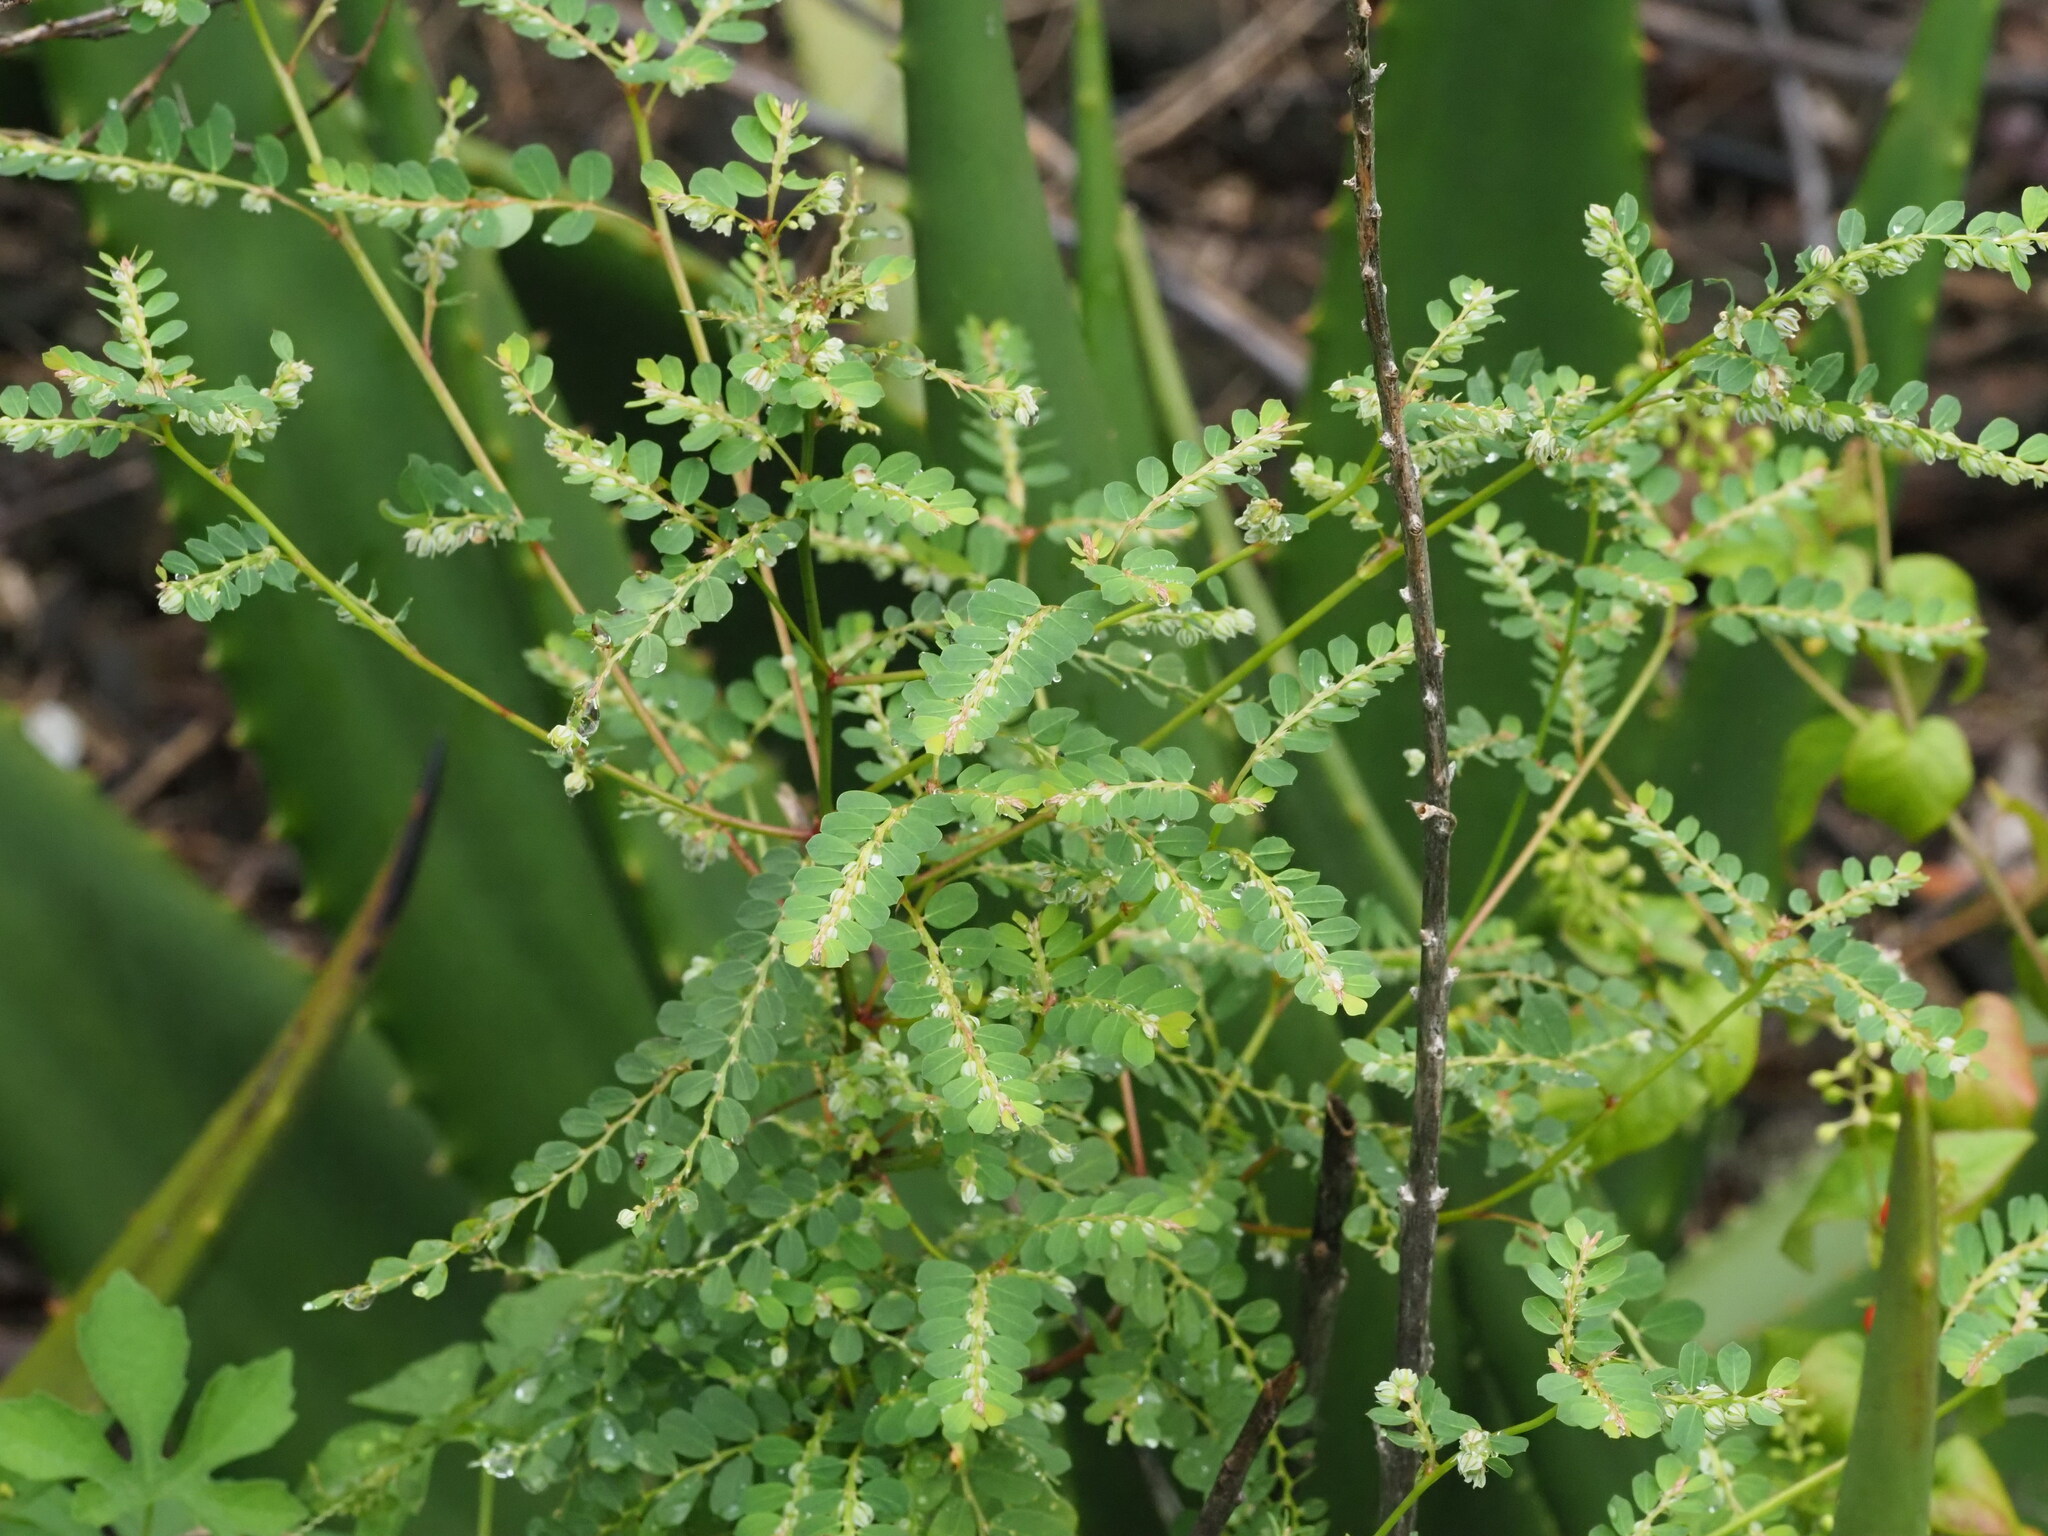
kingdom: Plantae
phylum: Tracheophyta
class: Magnoliopsida
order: Malpighiales
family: Phyllanthaceae
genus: Phyllanthus
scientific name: Phyllanthus leucanthus
